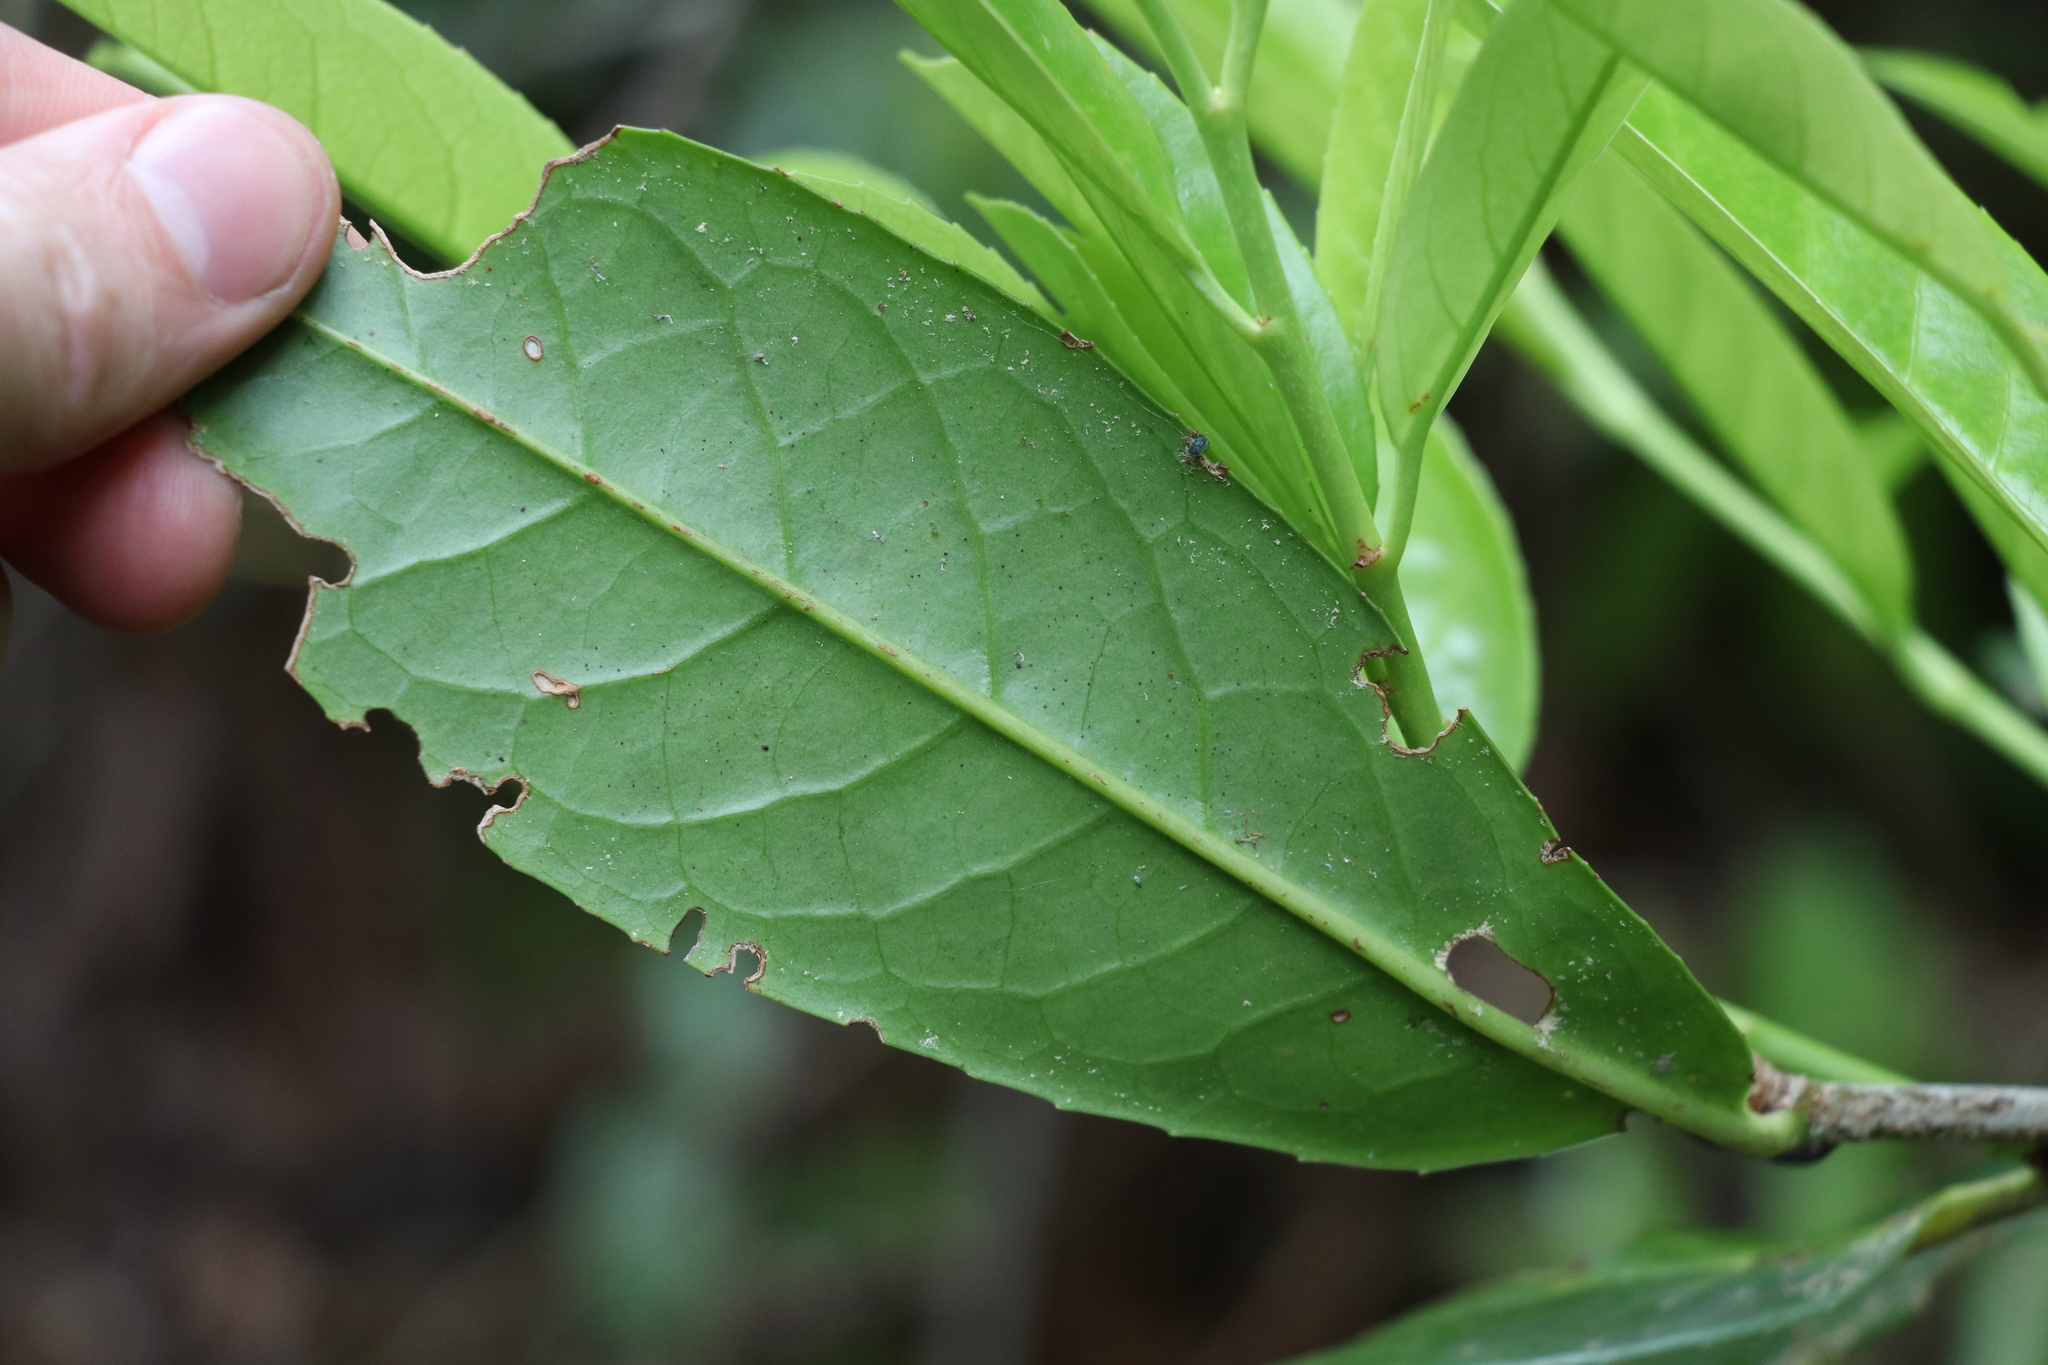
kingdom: Plantae
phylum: Tracheophyta
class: Magnoliopsida
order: Rosales
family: Rosaceae
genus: Prunus
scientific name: Prunus laurocerasus
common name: Cherry laurel
